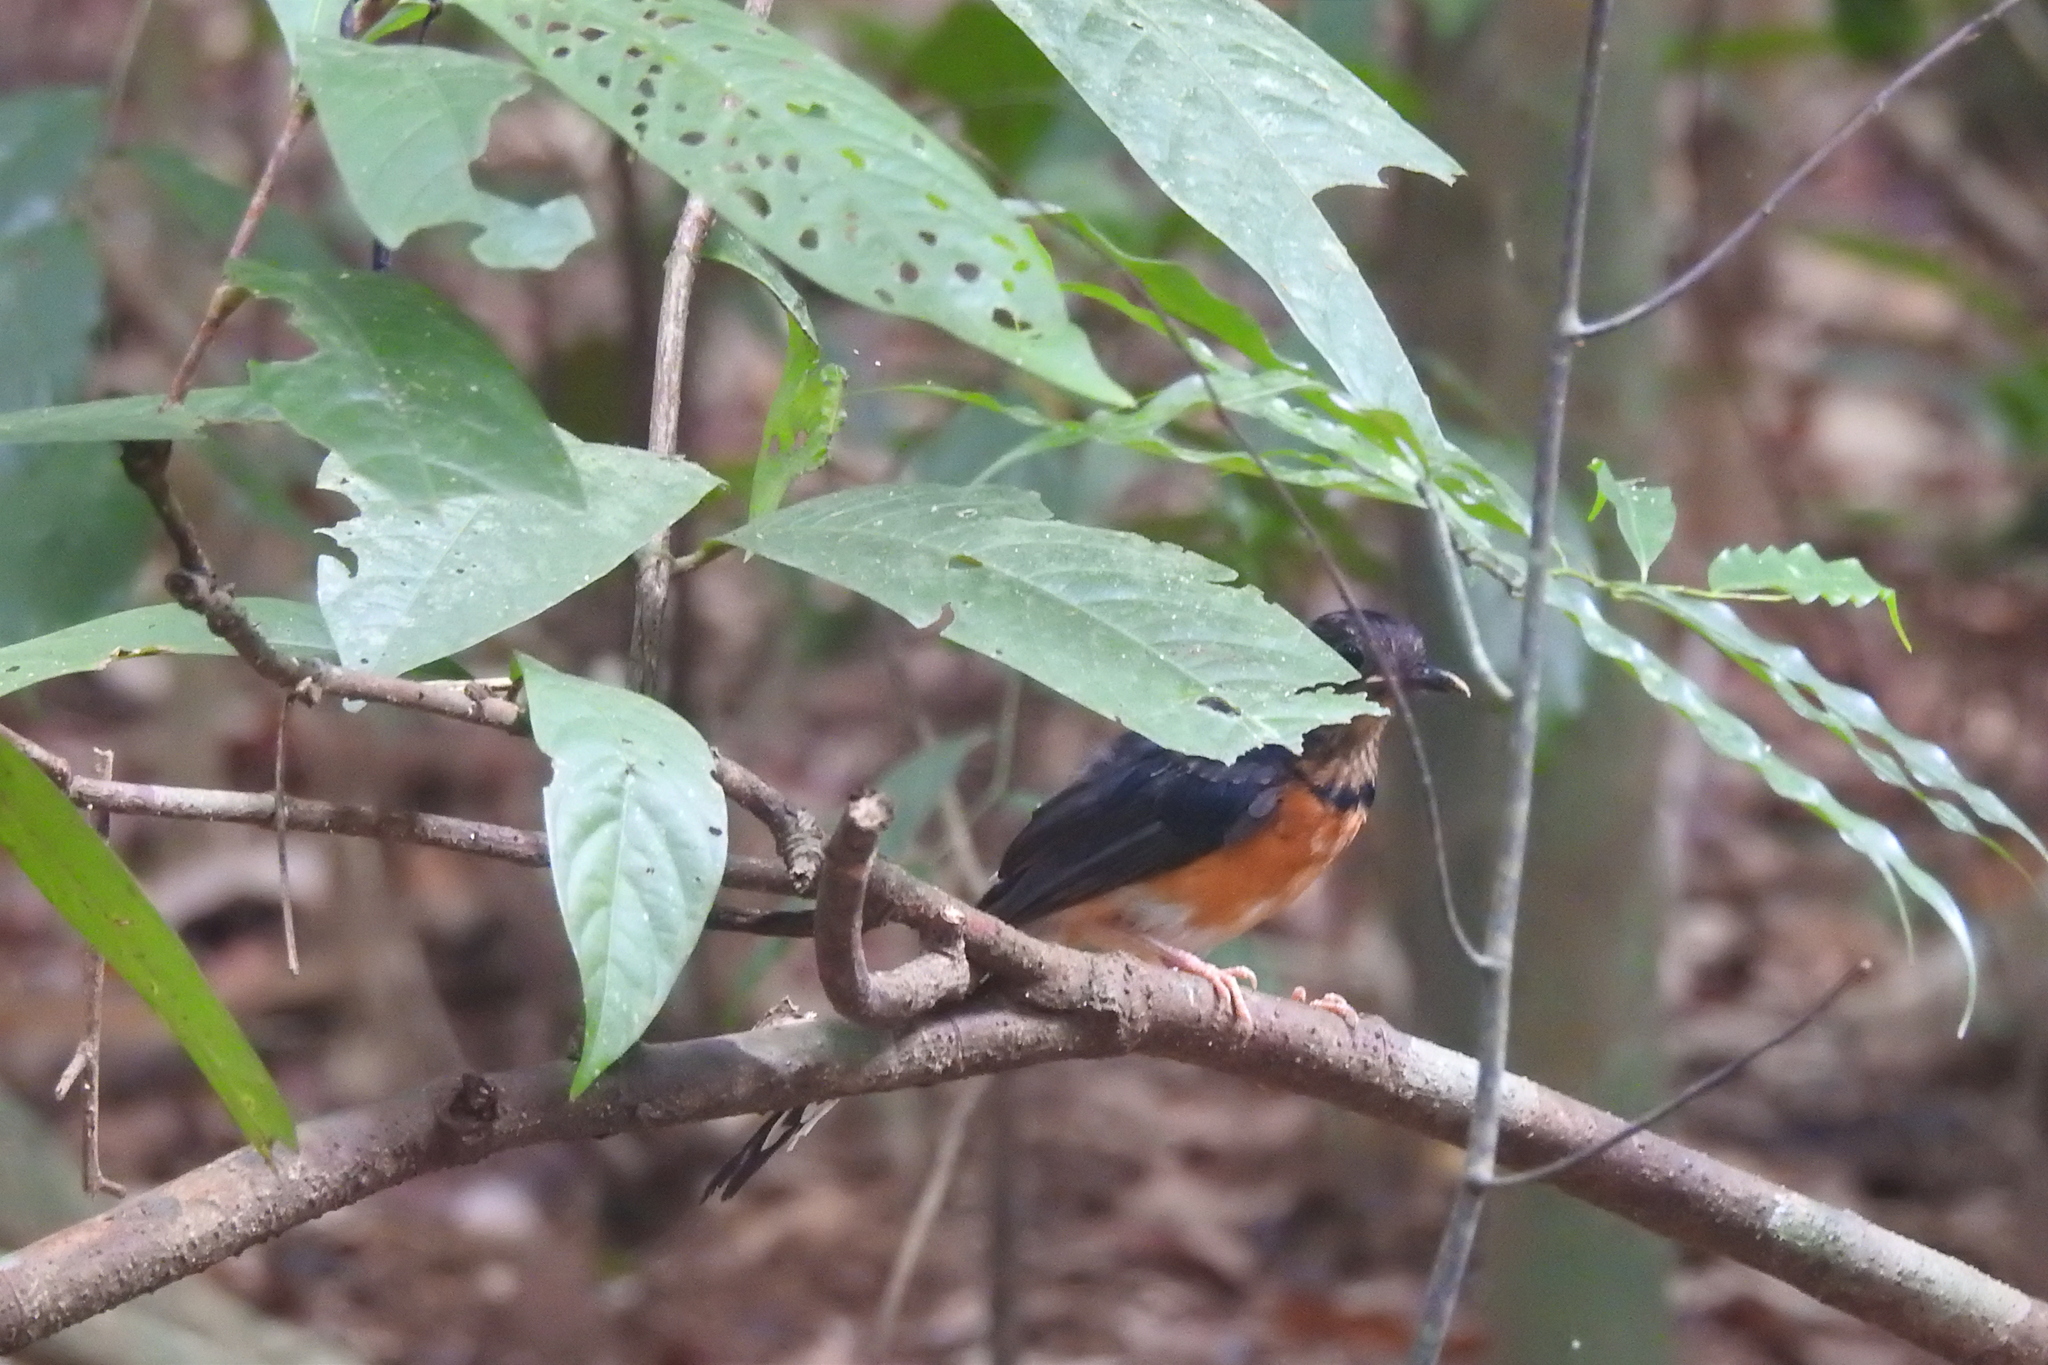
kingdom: Animalia
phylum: Chordata
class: Aves
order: Passeriformes
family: Muscicapidae
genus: Copsychus
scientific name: Copsychus malabaricus
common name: White-rumped shama
